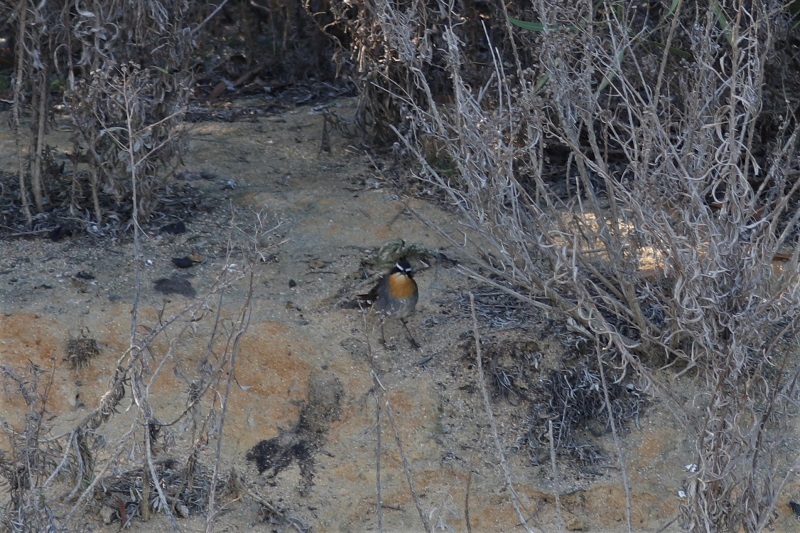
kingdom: Animalia
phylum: Chordata
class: Aves
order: Passeriformes
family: Muscicapidae
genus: Cossypha
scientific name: Cossypha caffra
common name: Cape robin-chat
